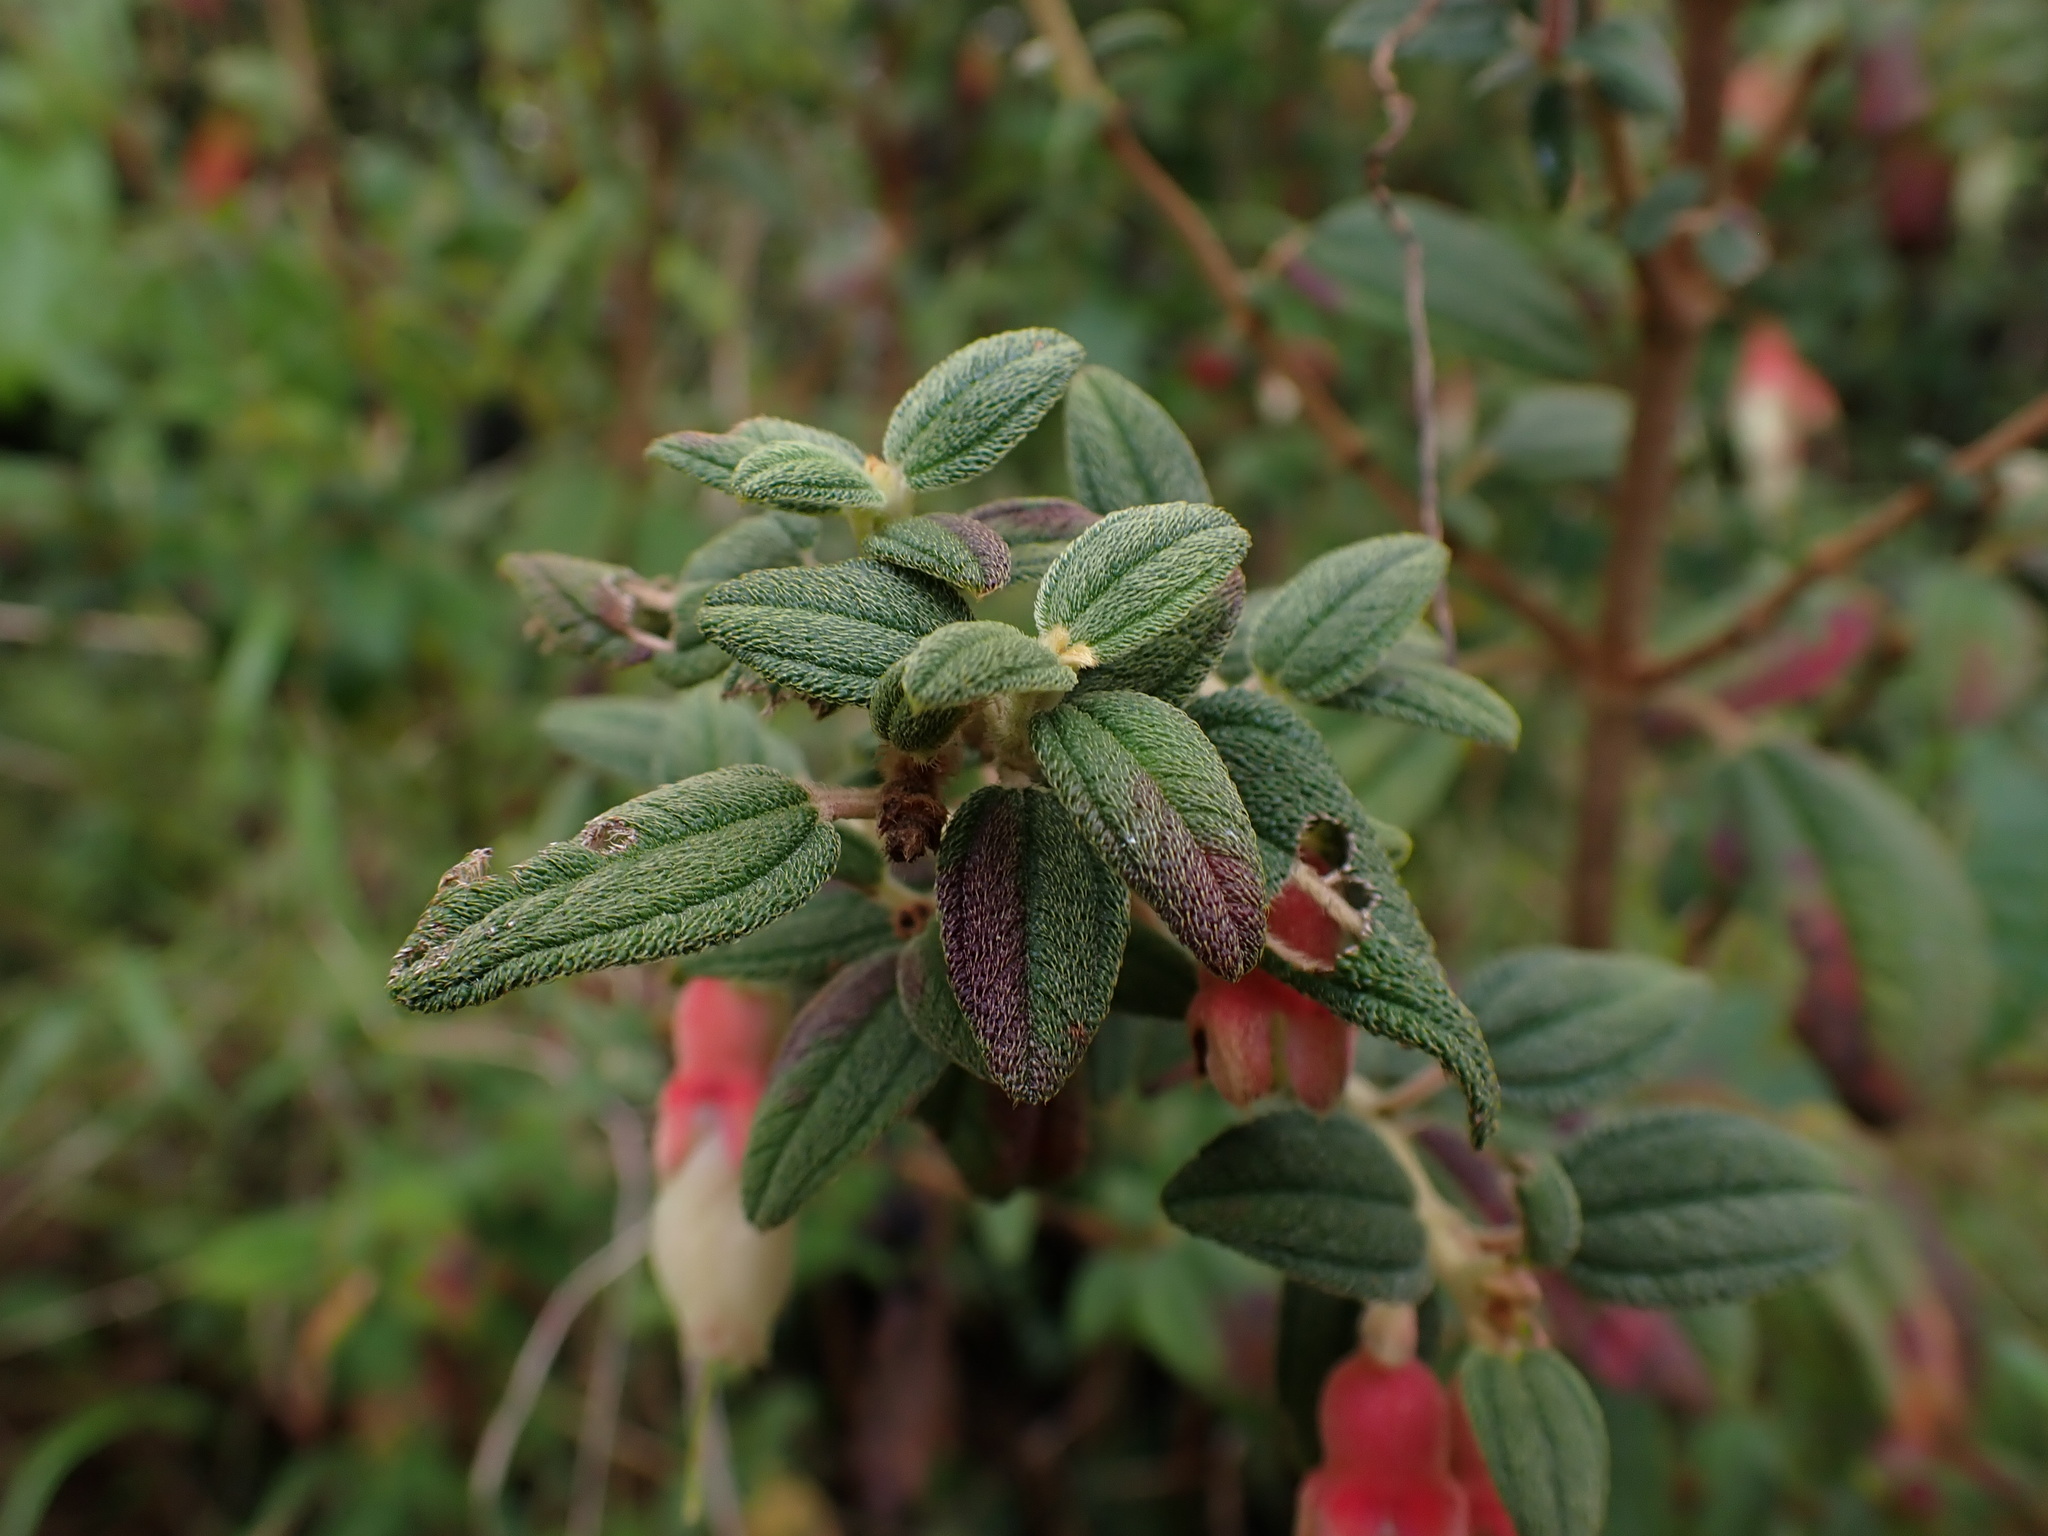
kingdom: Plantae
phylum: Tracheophyta
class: Magnoliopsida
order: Myrtales
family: Melastomataceae
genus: Brachyotum
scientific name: Brachyotum ledifolium
